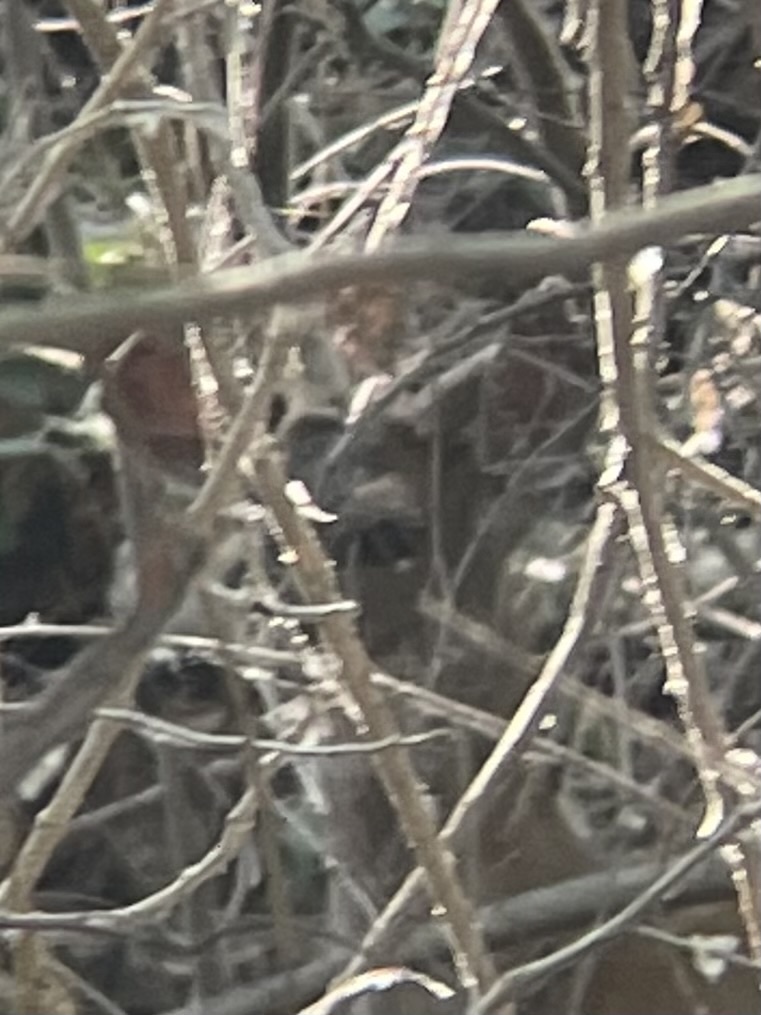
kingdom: Animalia
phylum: Chordata
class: Mammalia
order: Artiodactyla
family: Cervidae
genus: Odocoileus
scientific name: Odocoileus hemionus
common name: Mule deer
